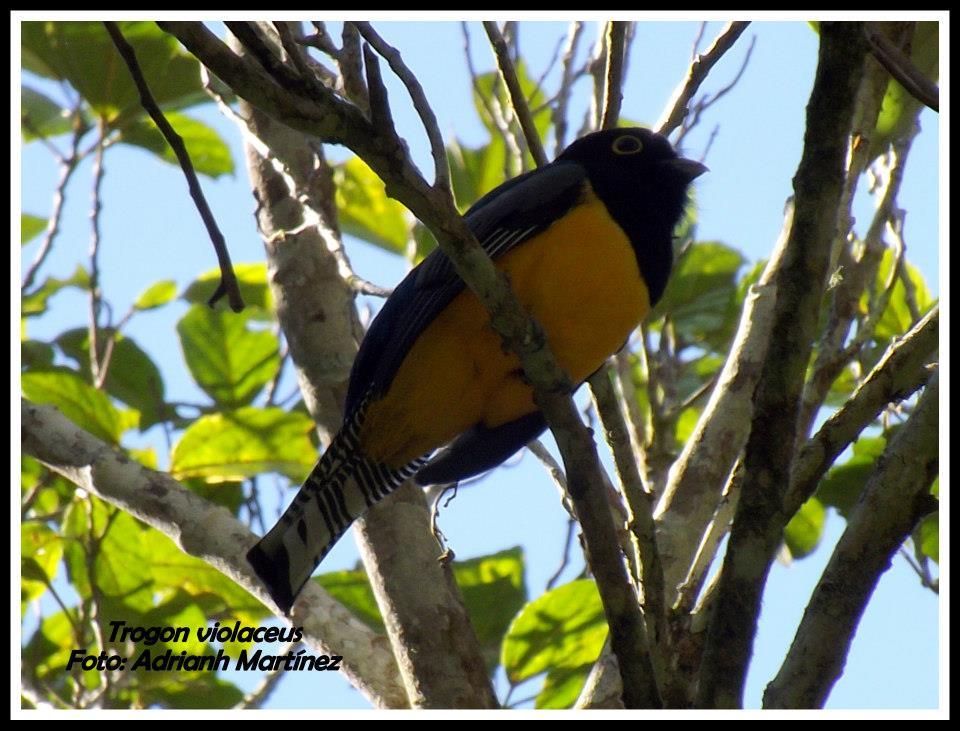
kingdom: Animalia
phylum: Chordata
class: Aves
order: Trogoniformes
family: Trogonidae
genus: Trogon
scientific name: Trogon caligatus
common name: Gartered trogon
